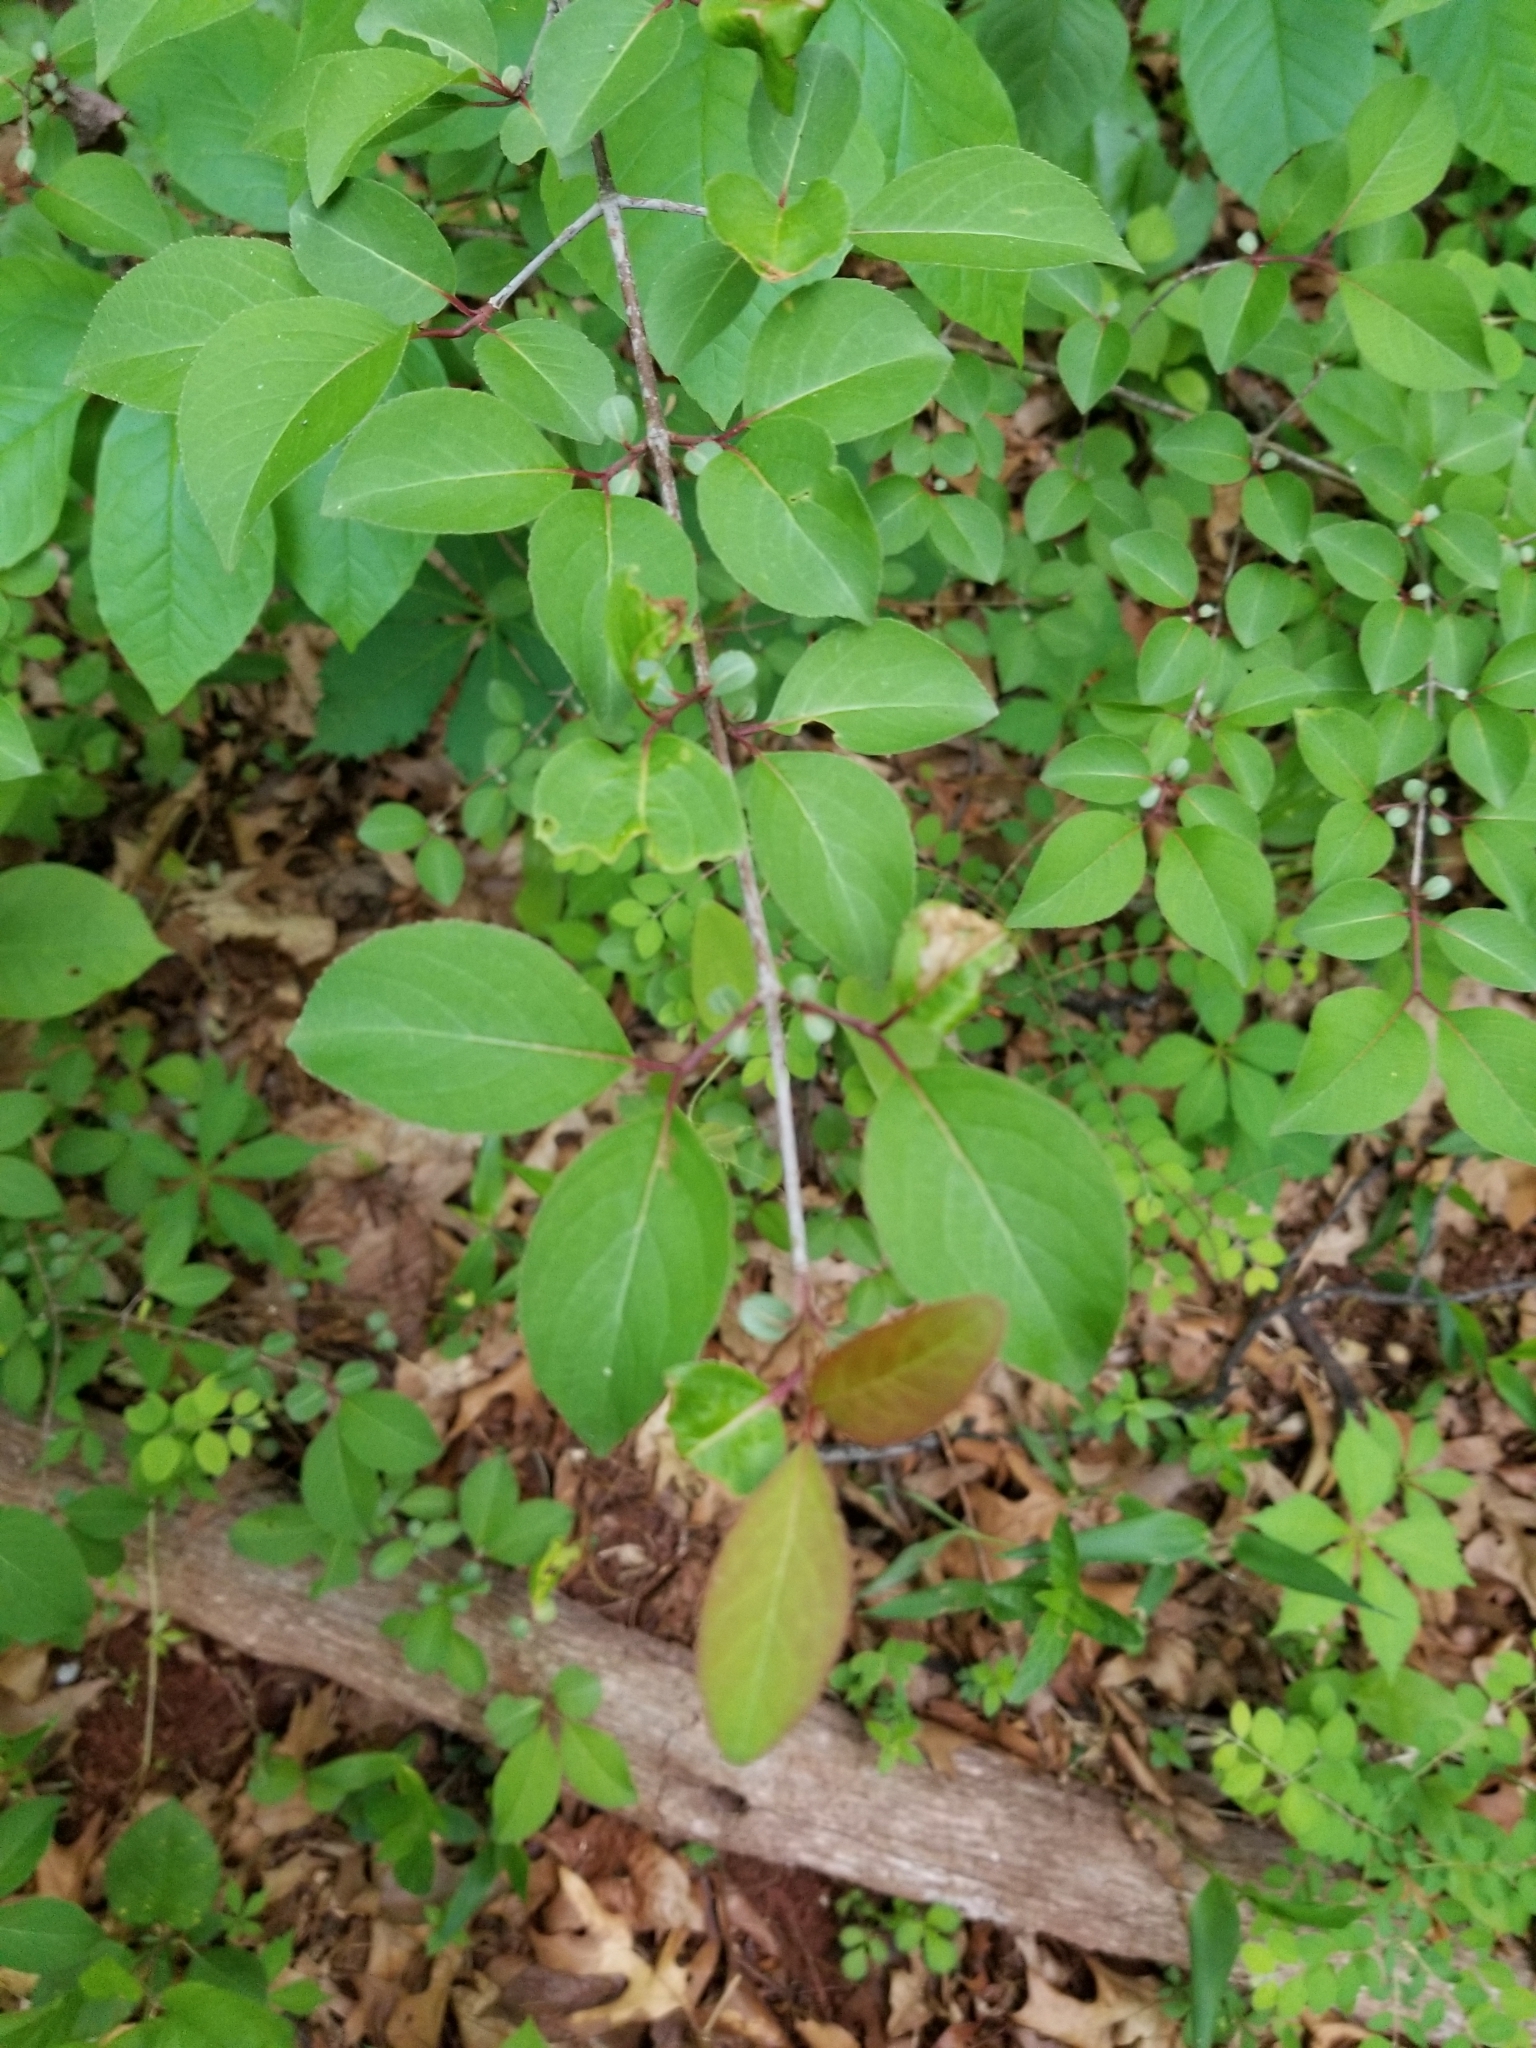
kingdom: Plantae
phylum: Tracheophyta
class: Magnoliopsida
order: Dipsacales
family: Viburnaceae
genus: Viburnum
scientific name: Viburnum prunifolium
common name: Black haw
